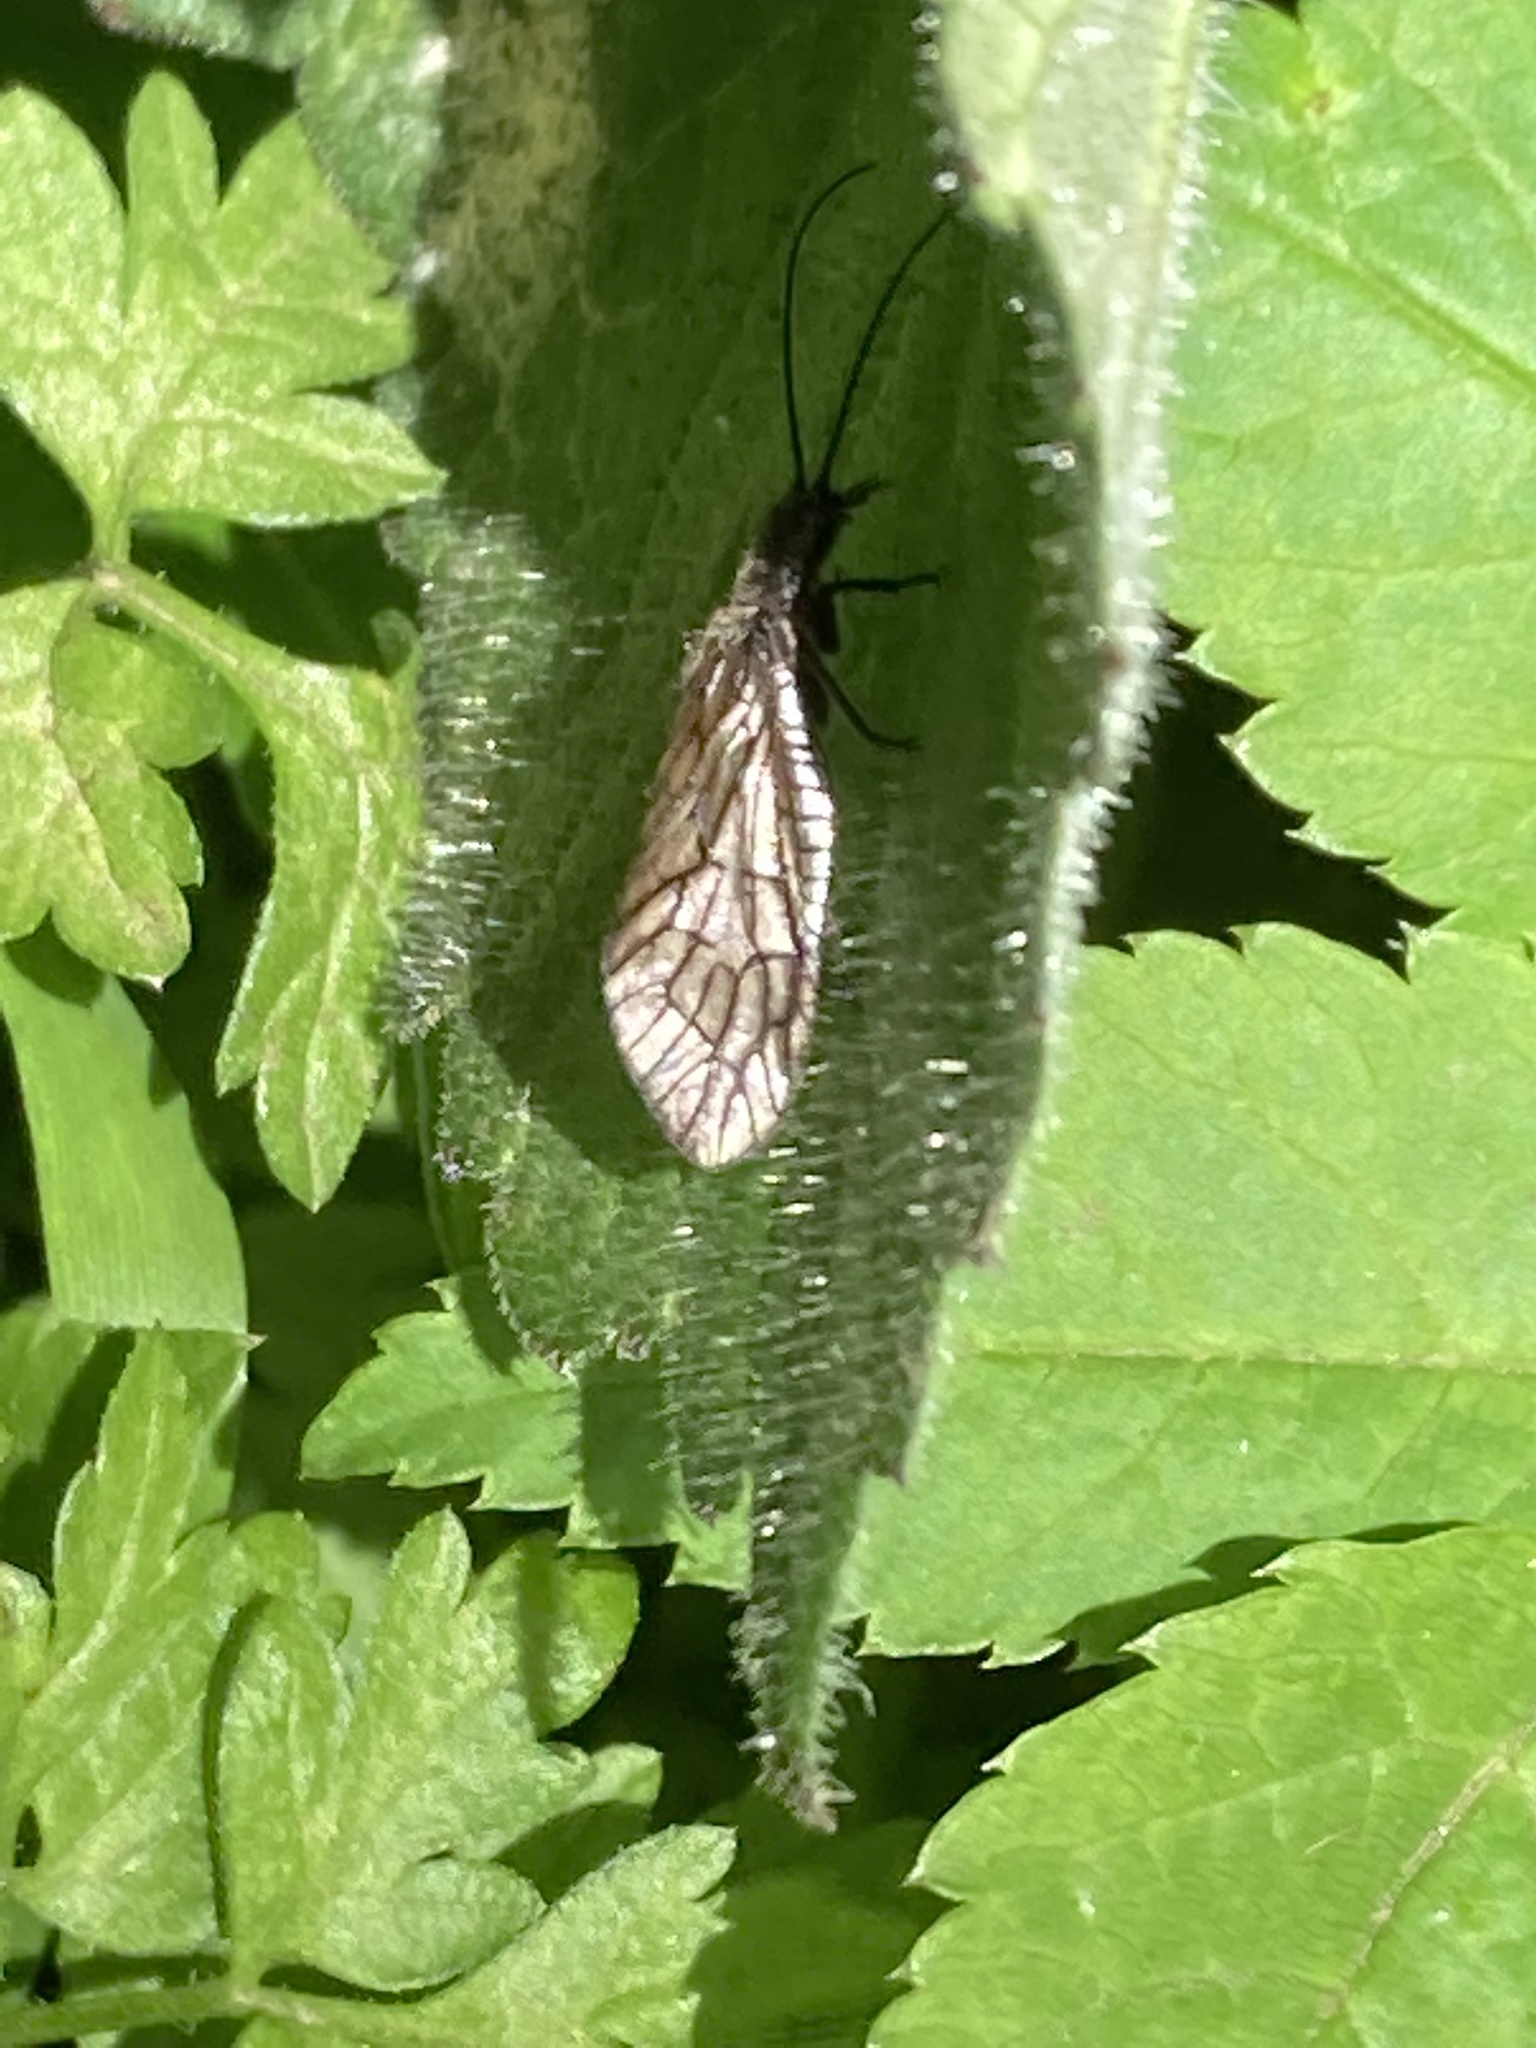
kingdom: Animalia
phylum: Arthropoda
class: Insecta
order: Megaloptera
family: Sialidae
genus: Sialis
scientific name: Sialis
